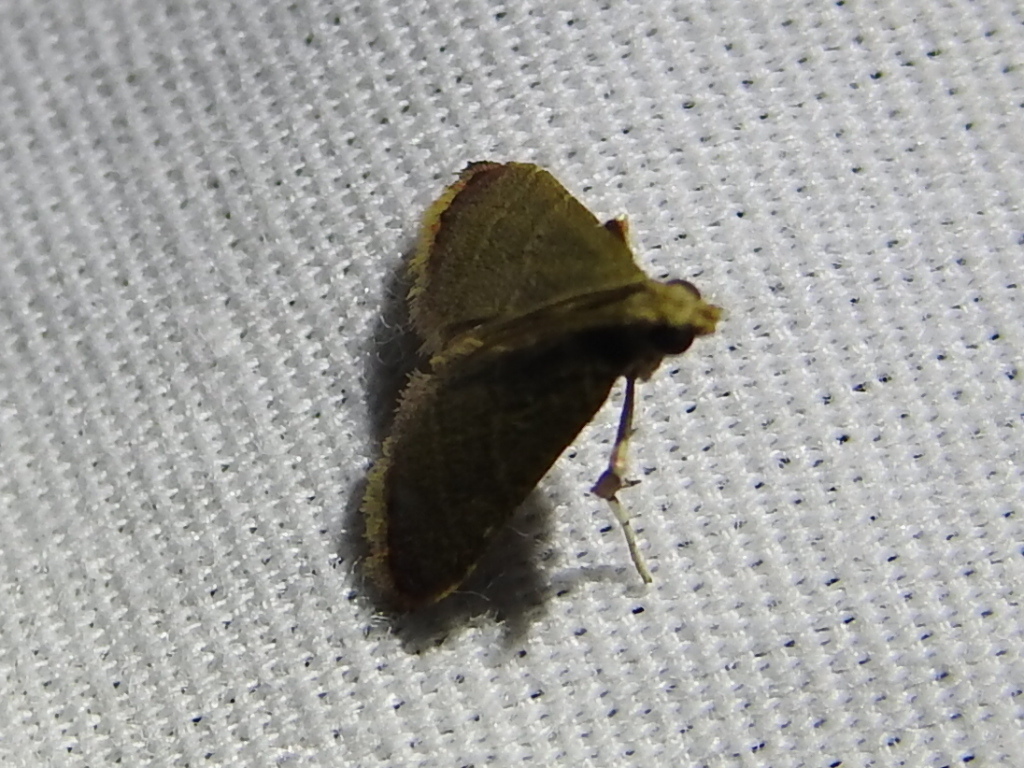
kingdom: Animalia
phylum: Arthropoda
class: Insecta
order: Lepidoptera
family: Pyralidae
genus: Arta
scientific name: Arta olivalis
